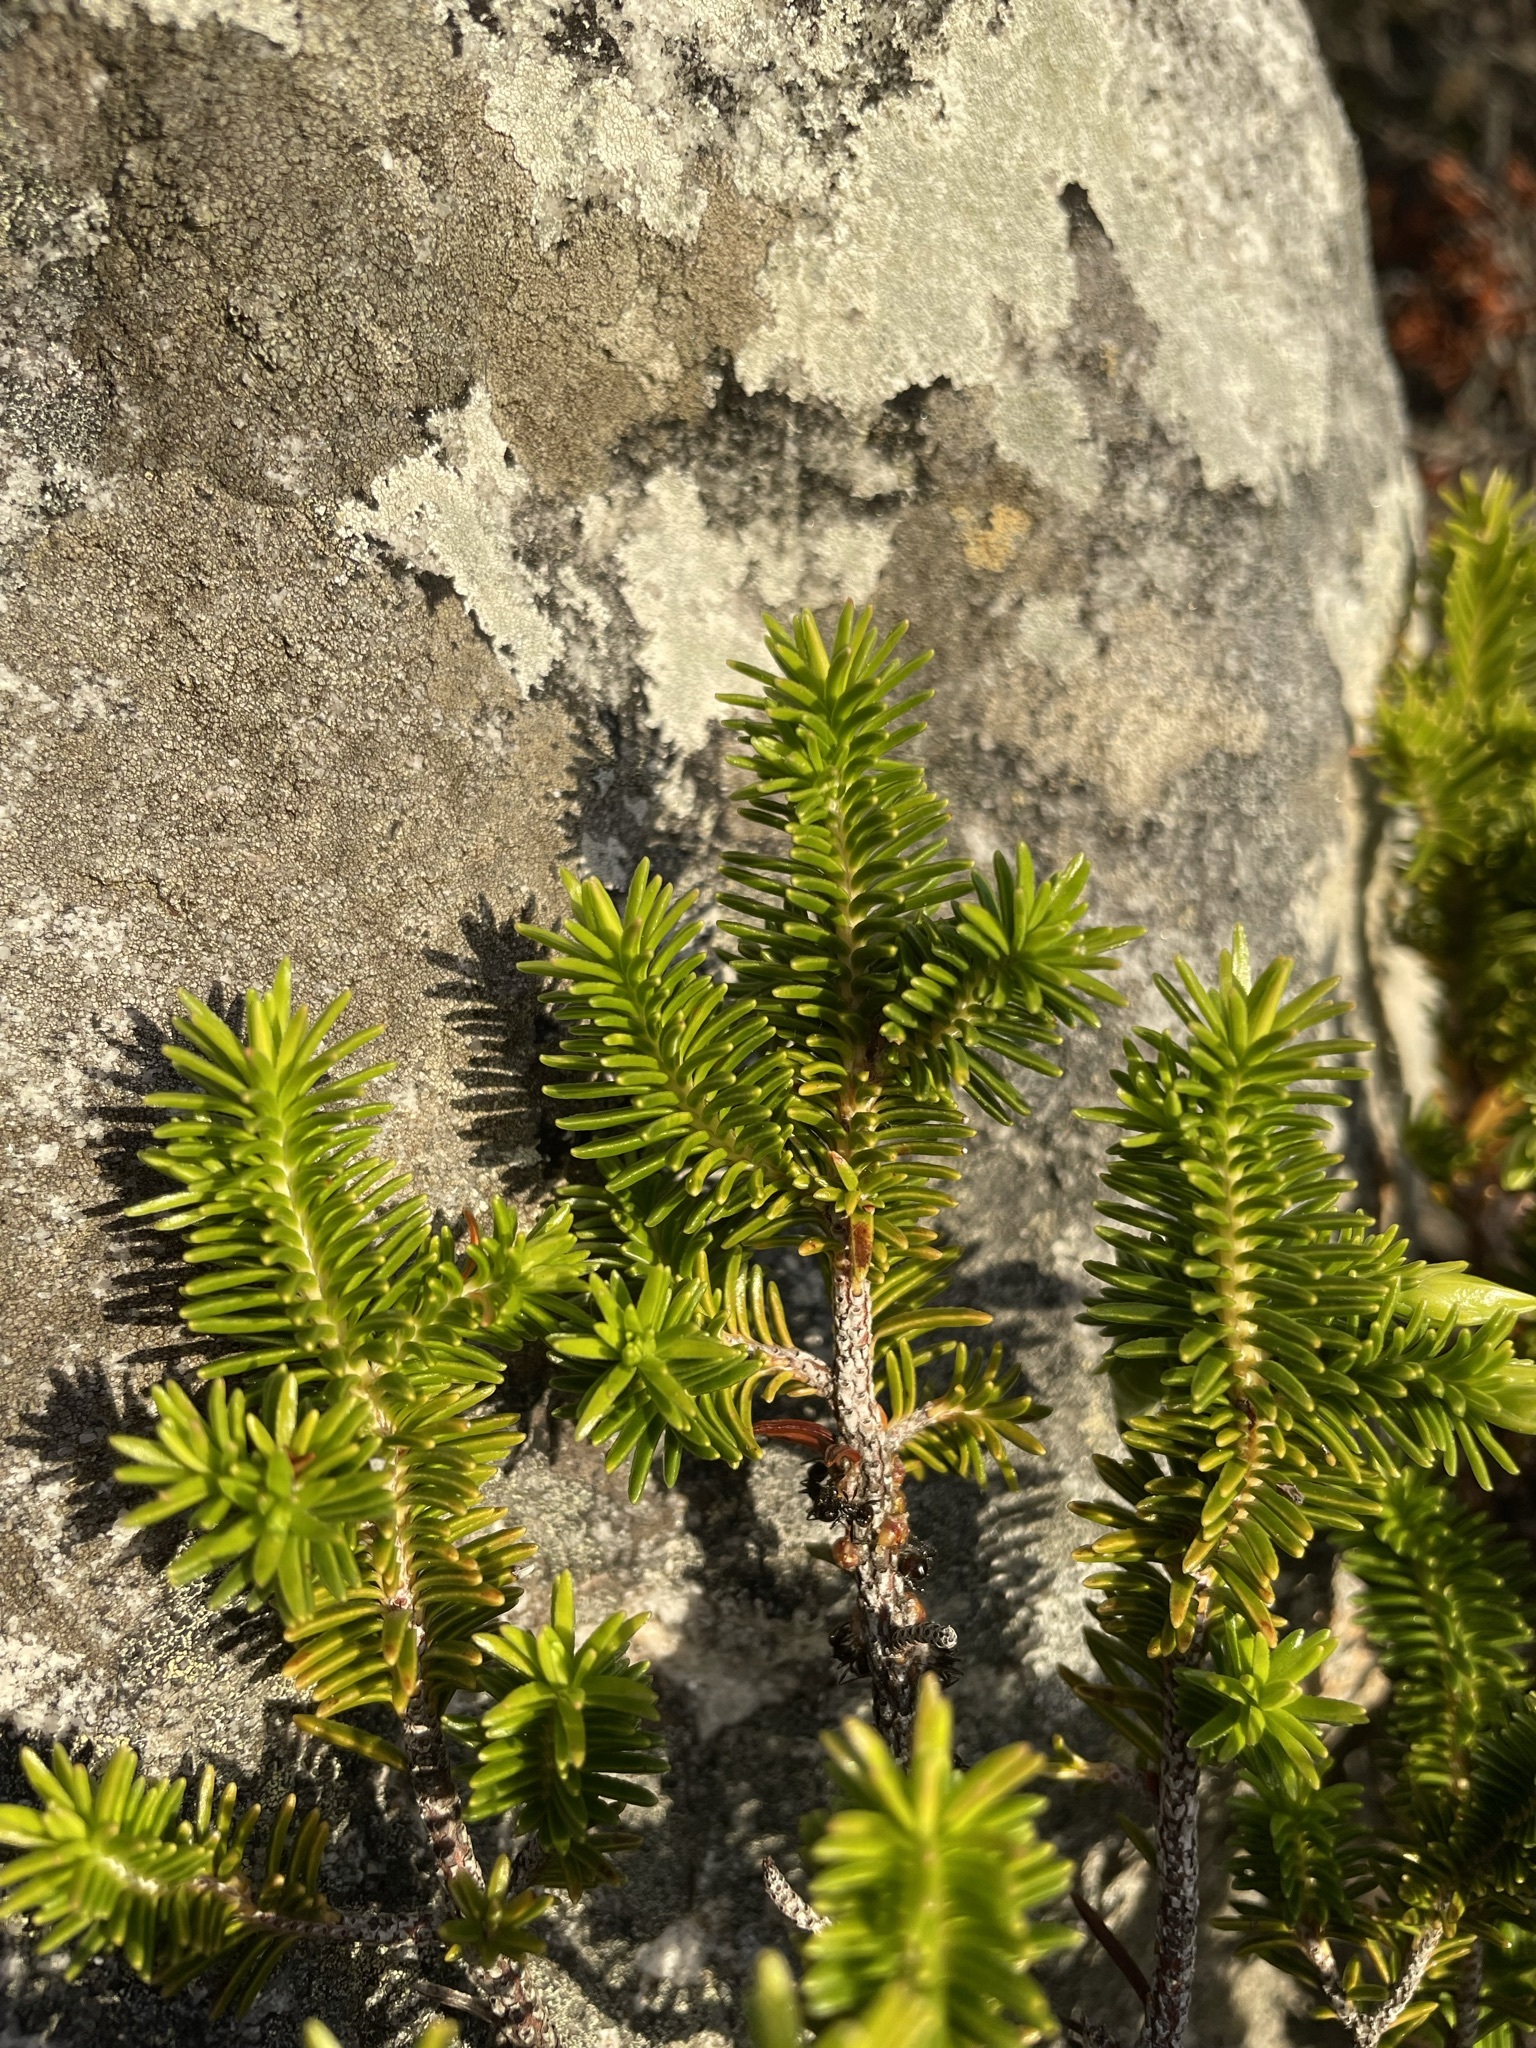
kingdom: Plantae
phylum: Tracheophyta
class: Magnoliopsida
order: Ericales
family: Ericaceae
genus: Erica
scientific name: Erica halicacaba
